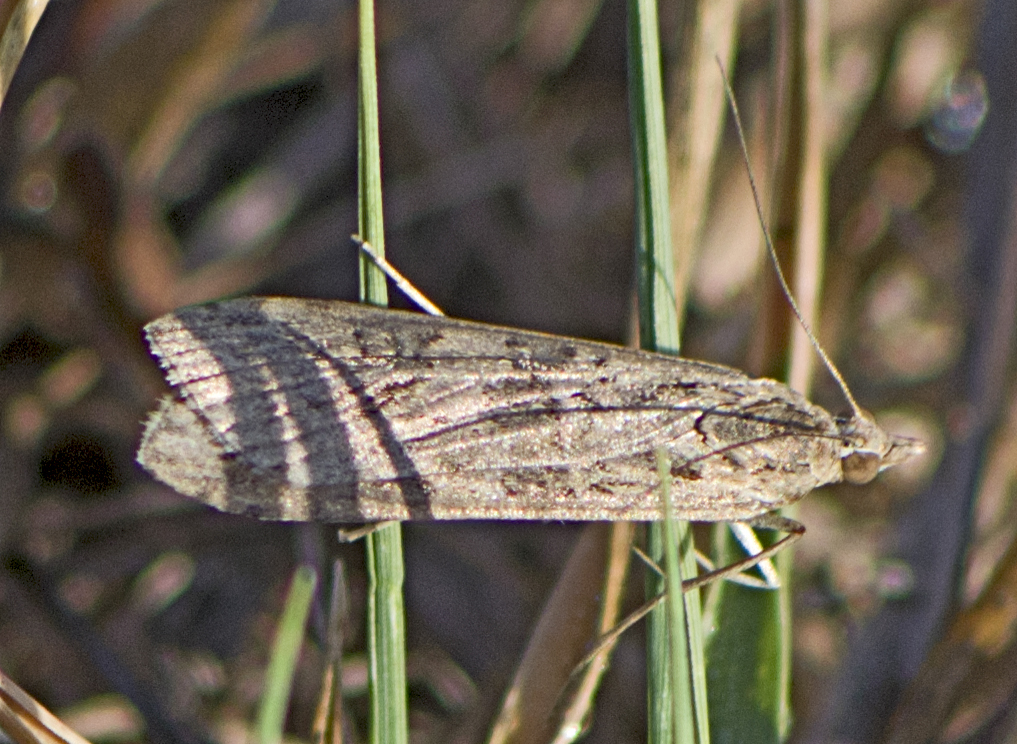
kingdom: Animalia
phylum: Arthropoda
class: Insecta
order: Lepidoptera
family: Crambidae
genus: Nomophila
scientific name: Nomophila noctuella
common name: Rush veneer
